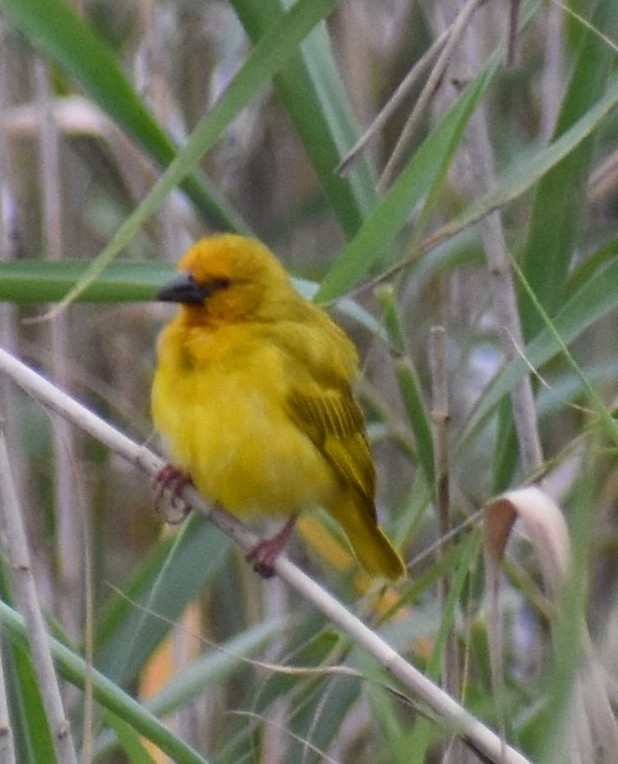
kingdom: Animalia
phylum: Chordata
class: Aves
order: Passeriformes
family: Ploceidae
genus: Ploceus
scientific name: Ploceus subaureus
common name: Yellow weaver
